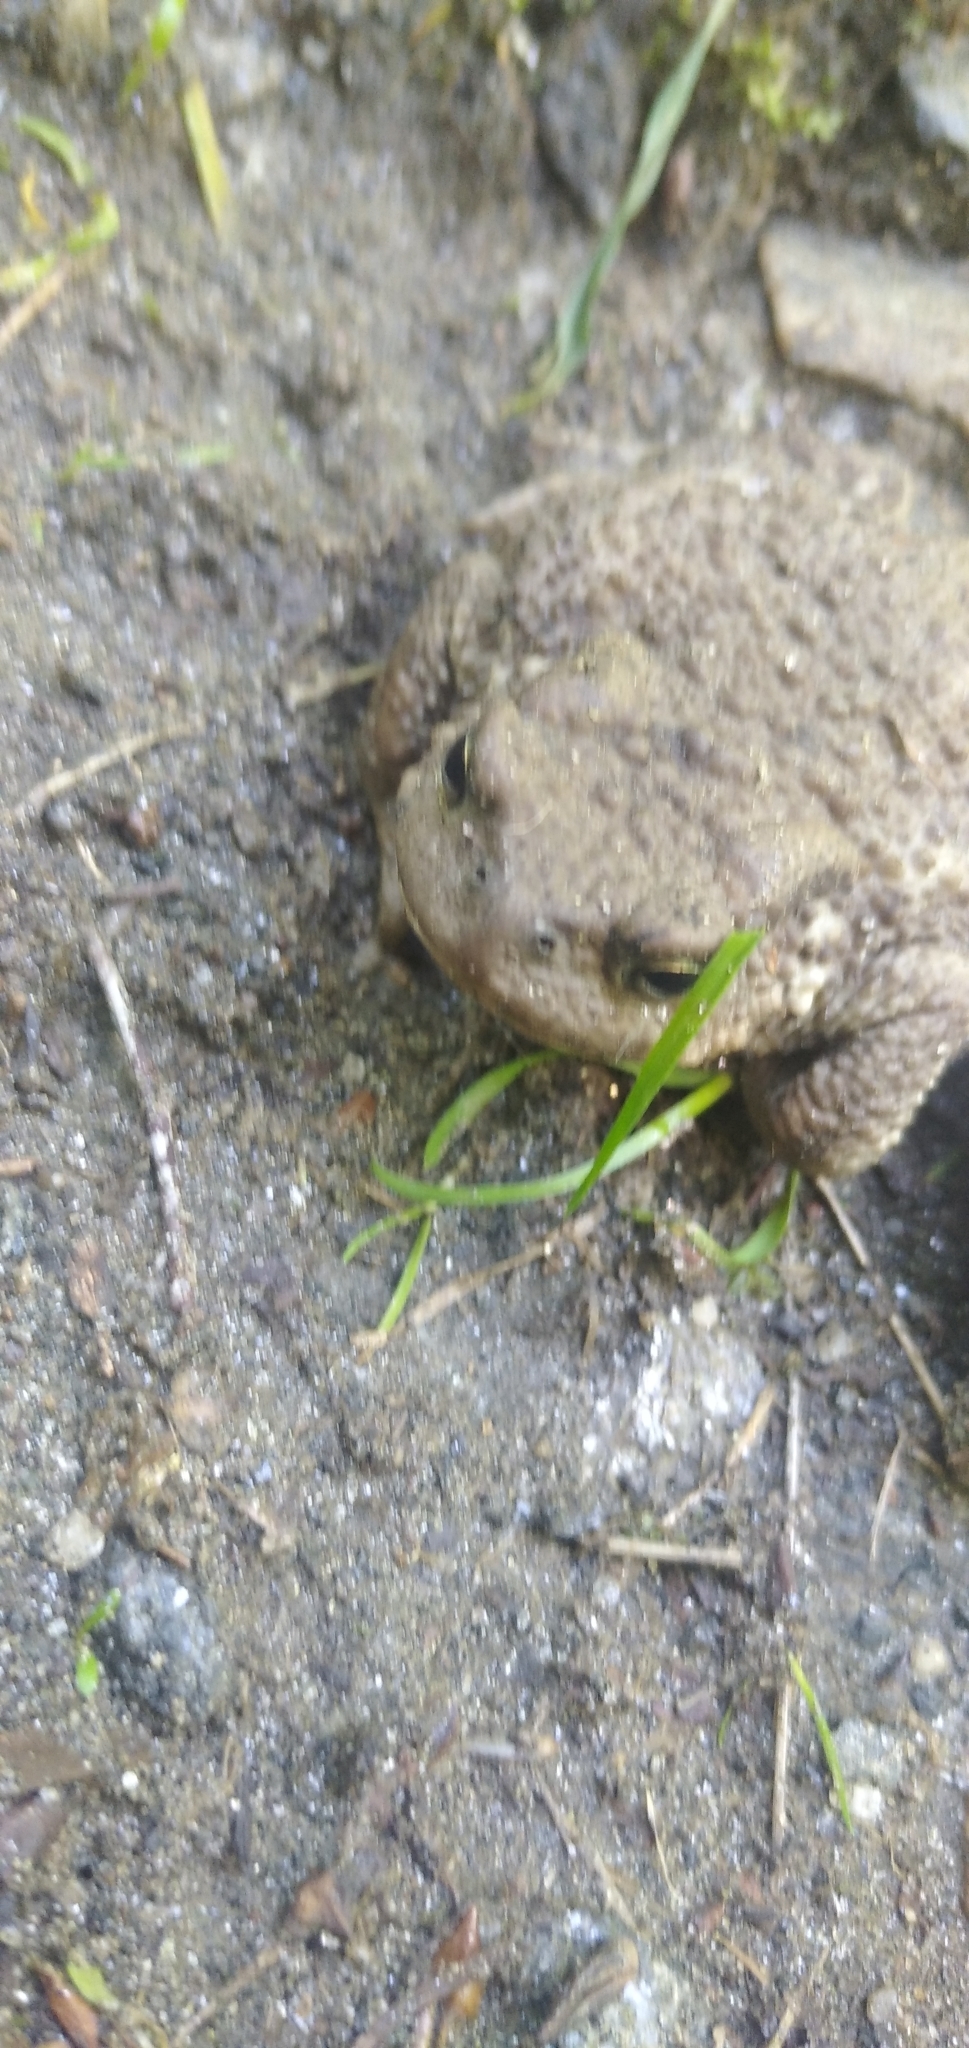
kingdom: Animalia
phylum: Chordata
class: Amphibia
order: Anura
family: Bufonidae
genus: Bufo
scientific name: Bufo bufo
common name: Common toad
